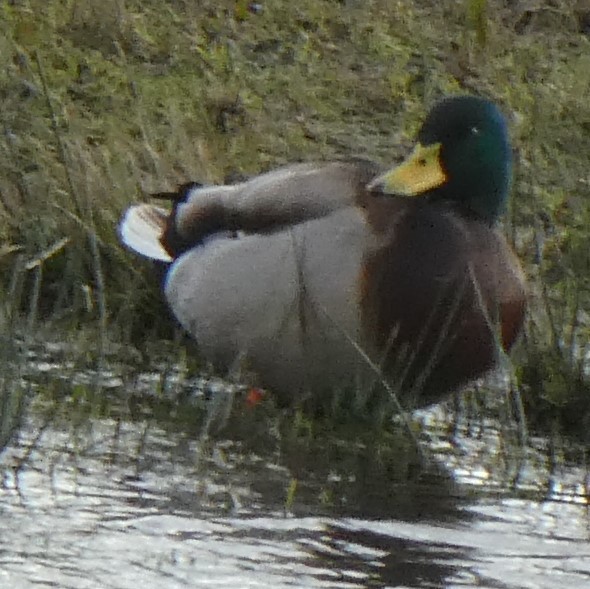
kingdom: Animalia
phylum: Chordata
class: Aves
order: Anseriformes
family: Anatidae
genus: Anas
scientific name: Anas platyrhynchos
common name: Mallard
